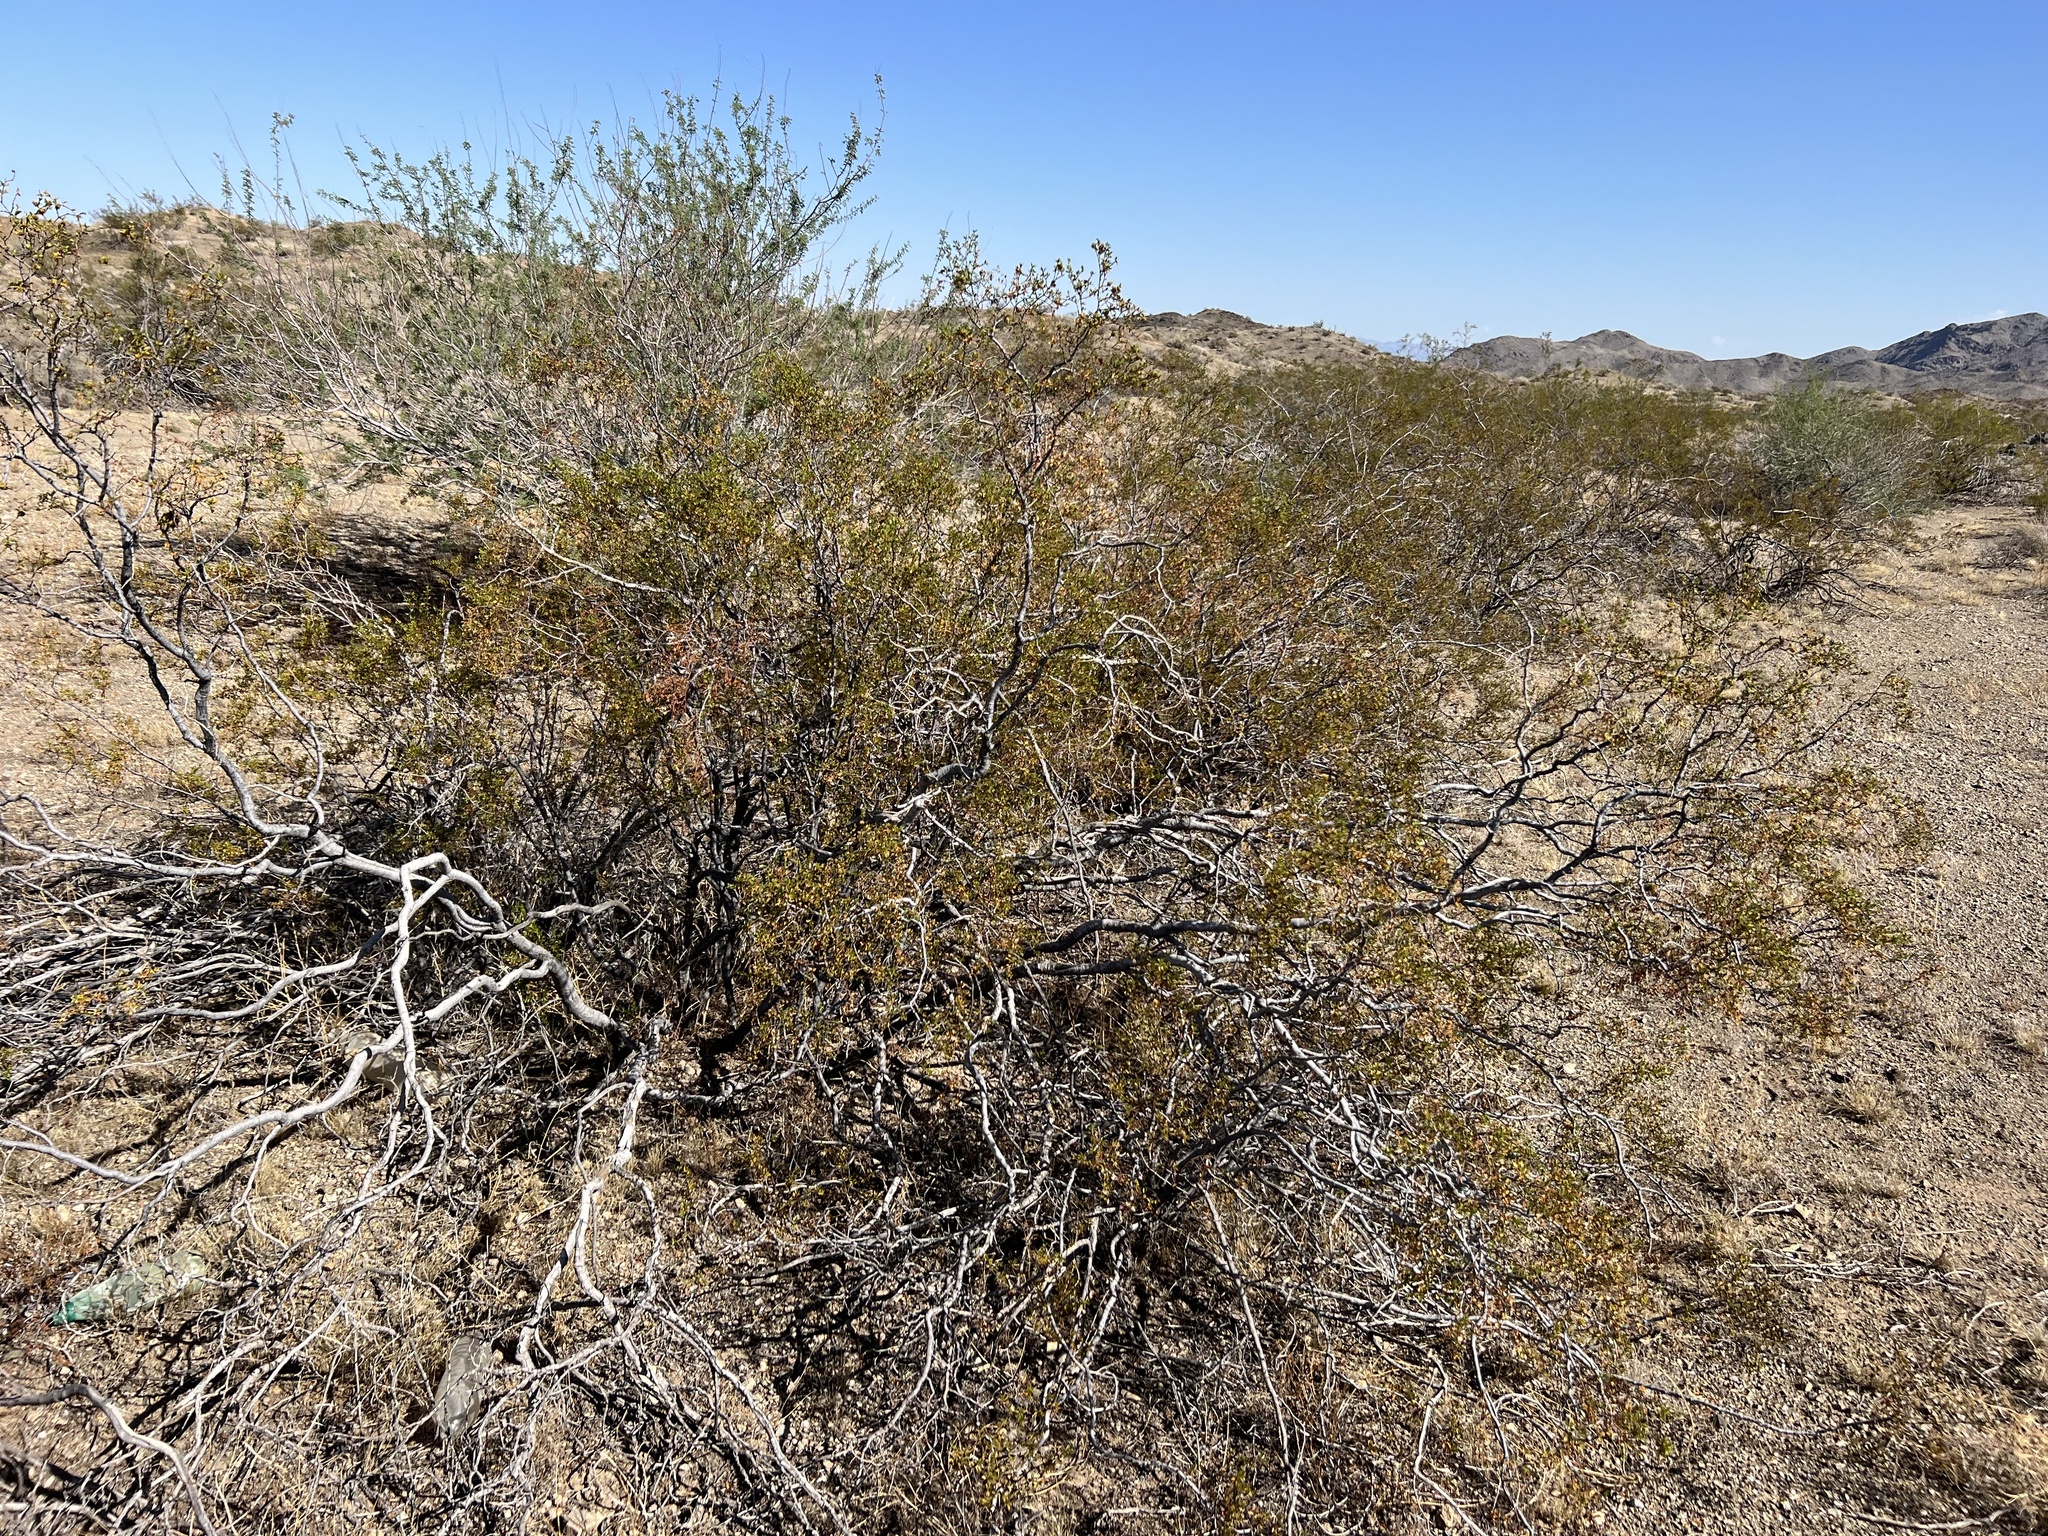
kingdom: Plantae
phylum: Tracheophyta
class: Magnoliopsida
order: Zygophyllales
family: Zygophyllaceae
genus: Larrea
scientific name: Larrea tridentata
